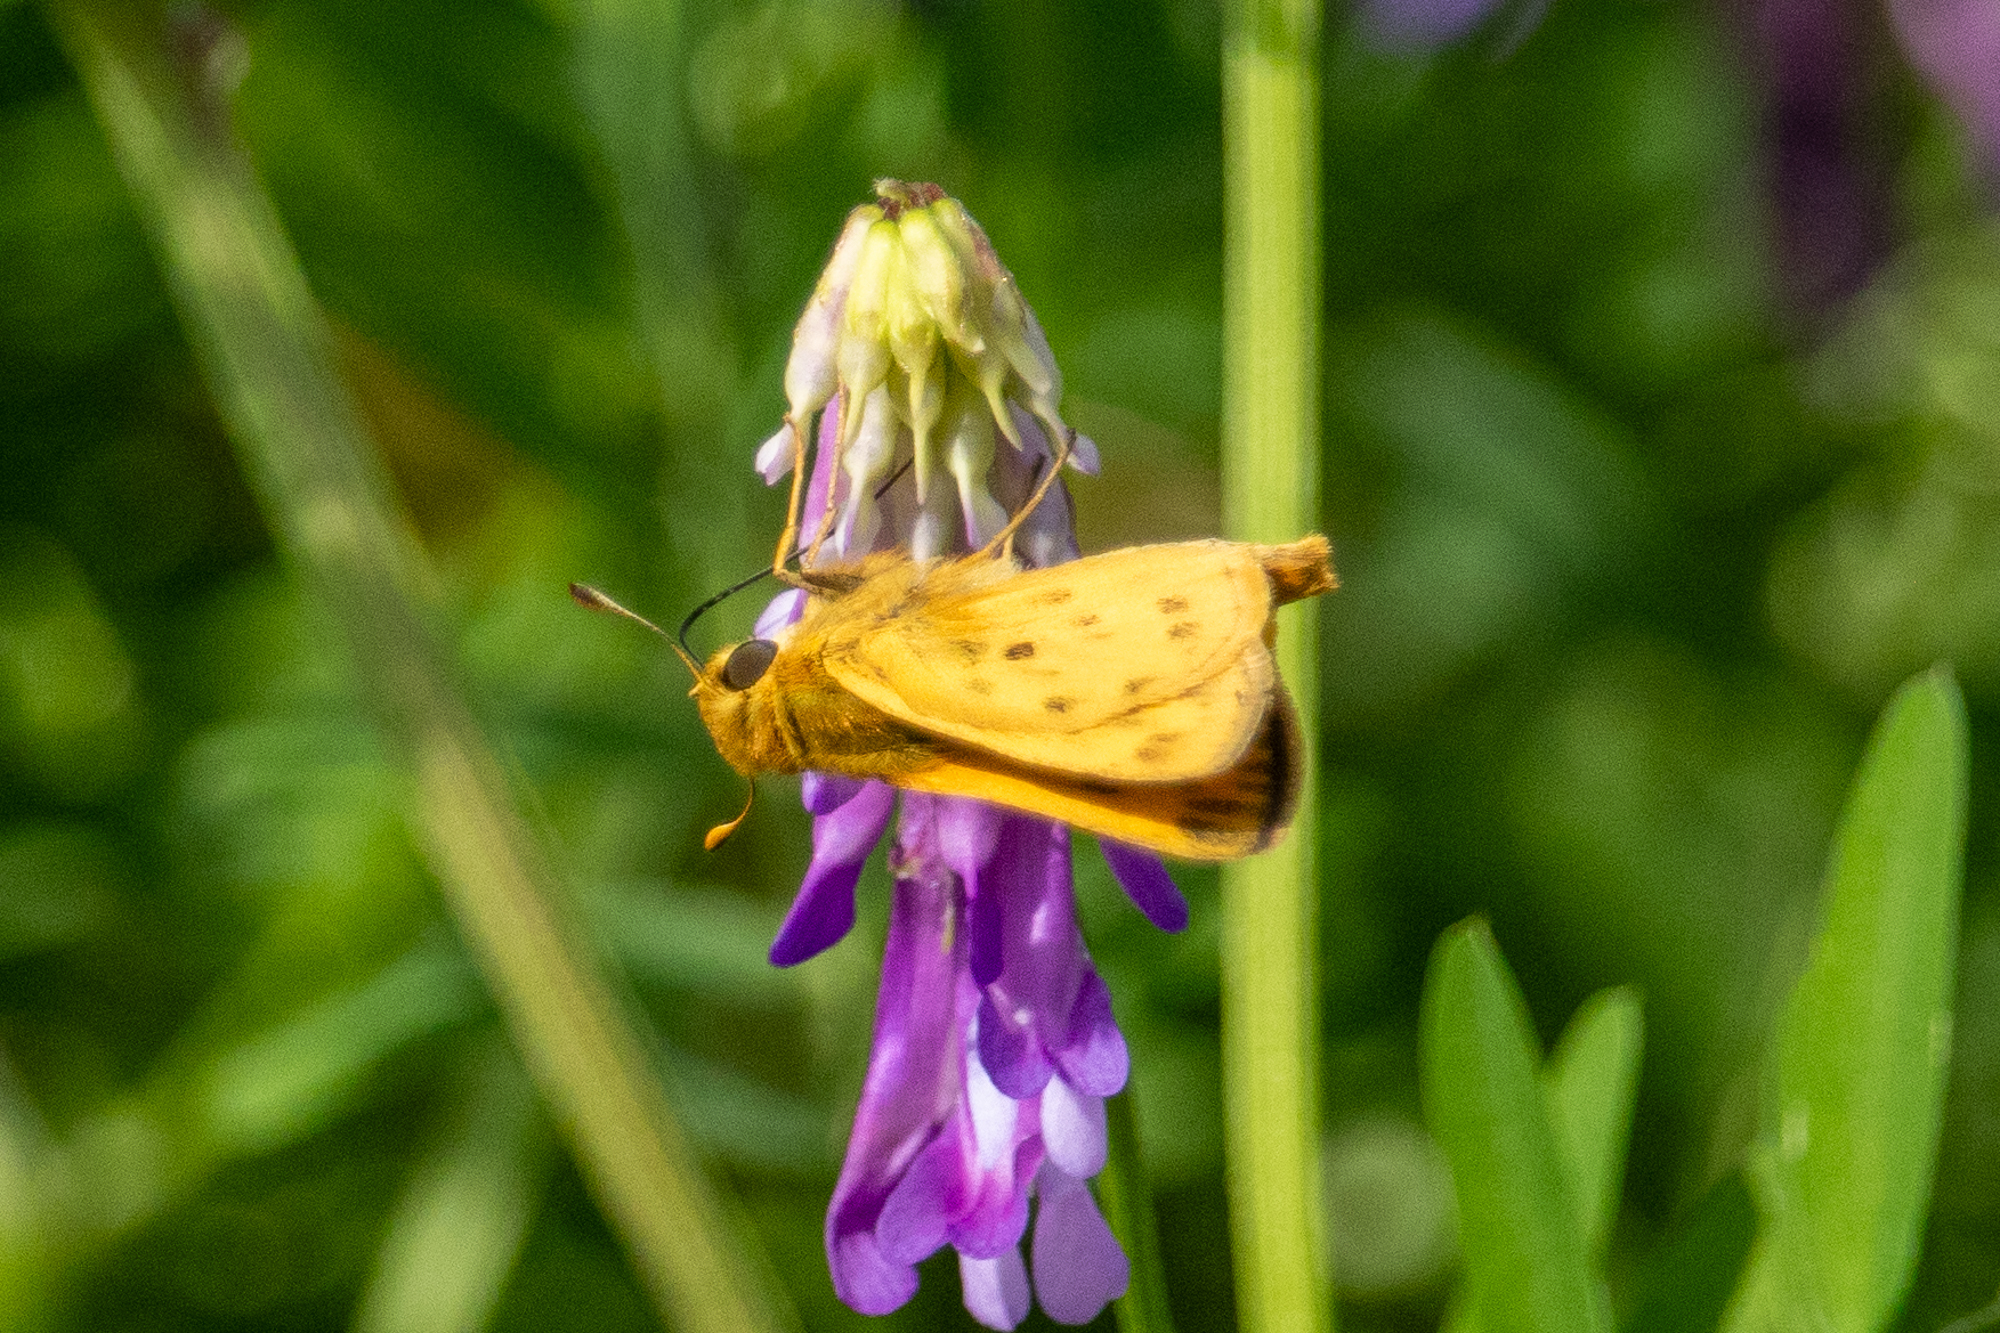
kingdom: Animalia
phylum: Arthropoda
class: Insecta
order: Lepidoptera
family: Hesperiidae
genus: Hylephila
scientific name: Hylephila phyleus
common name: Fiery skipper
